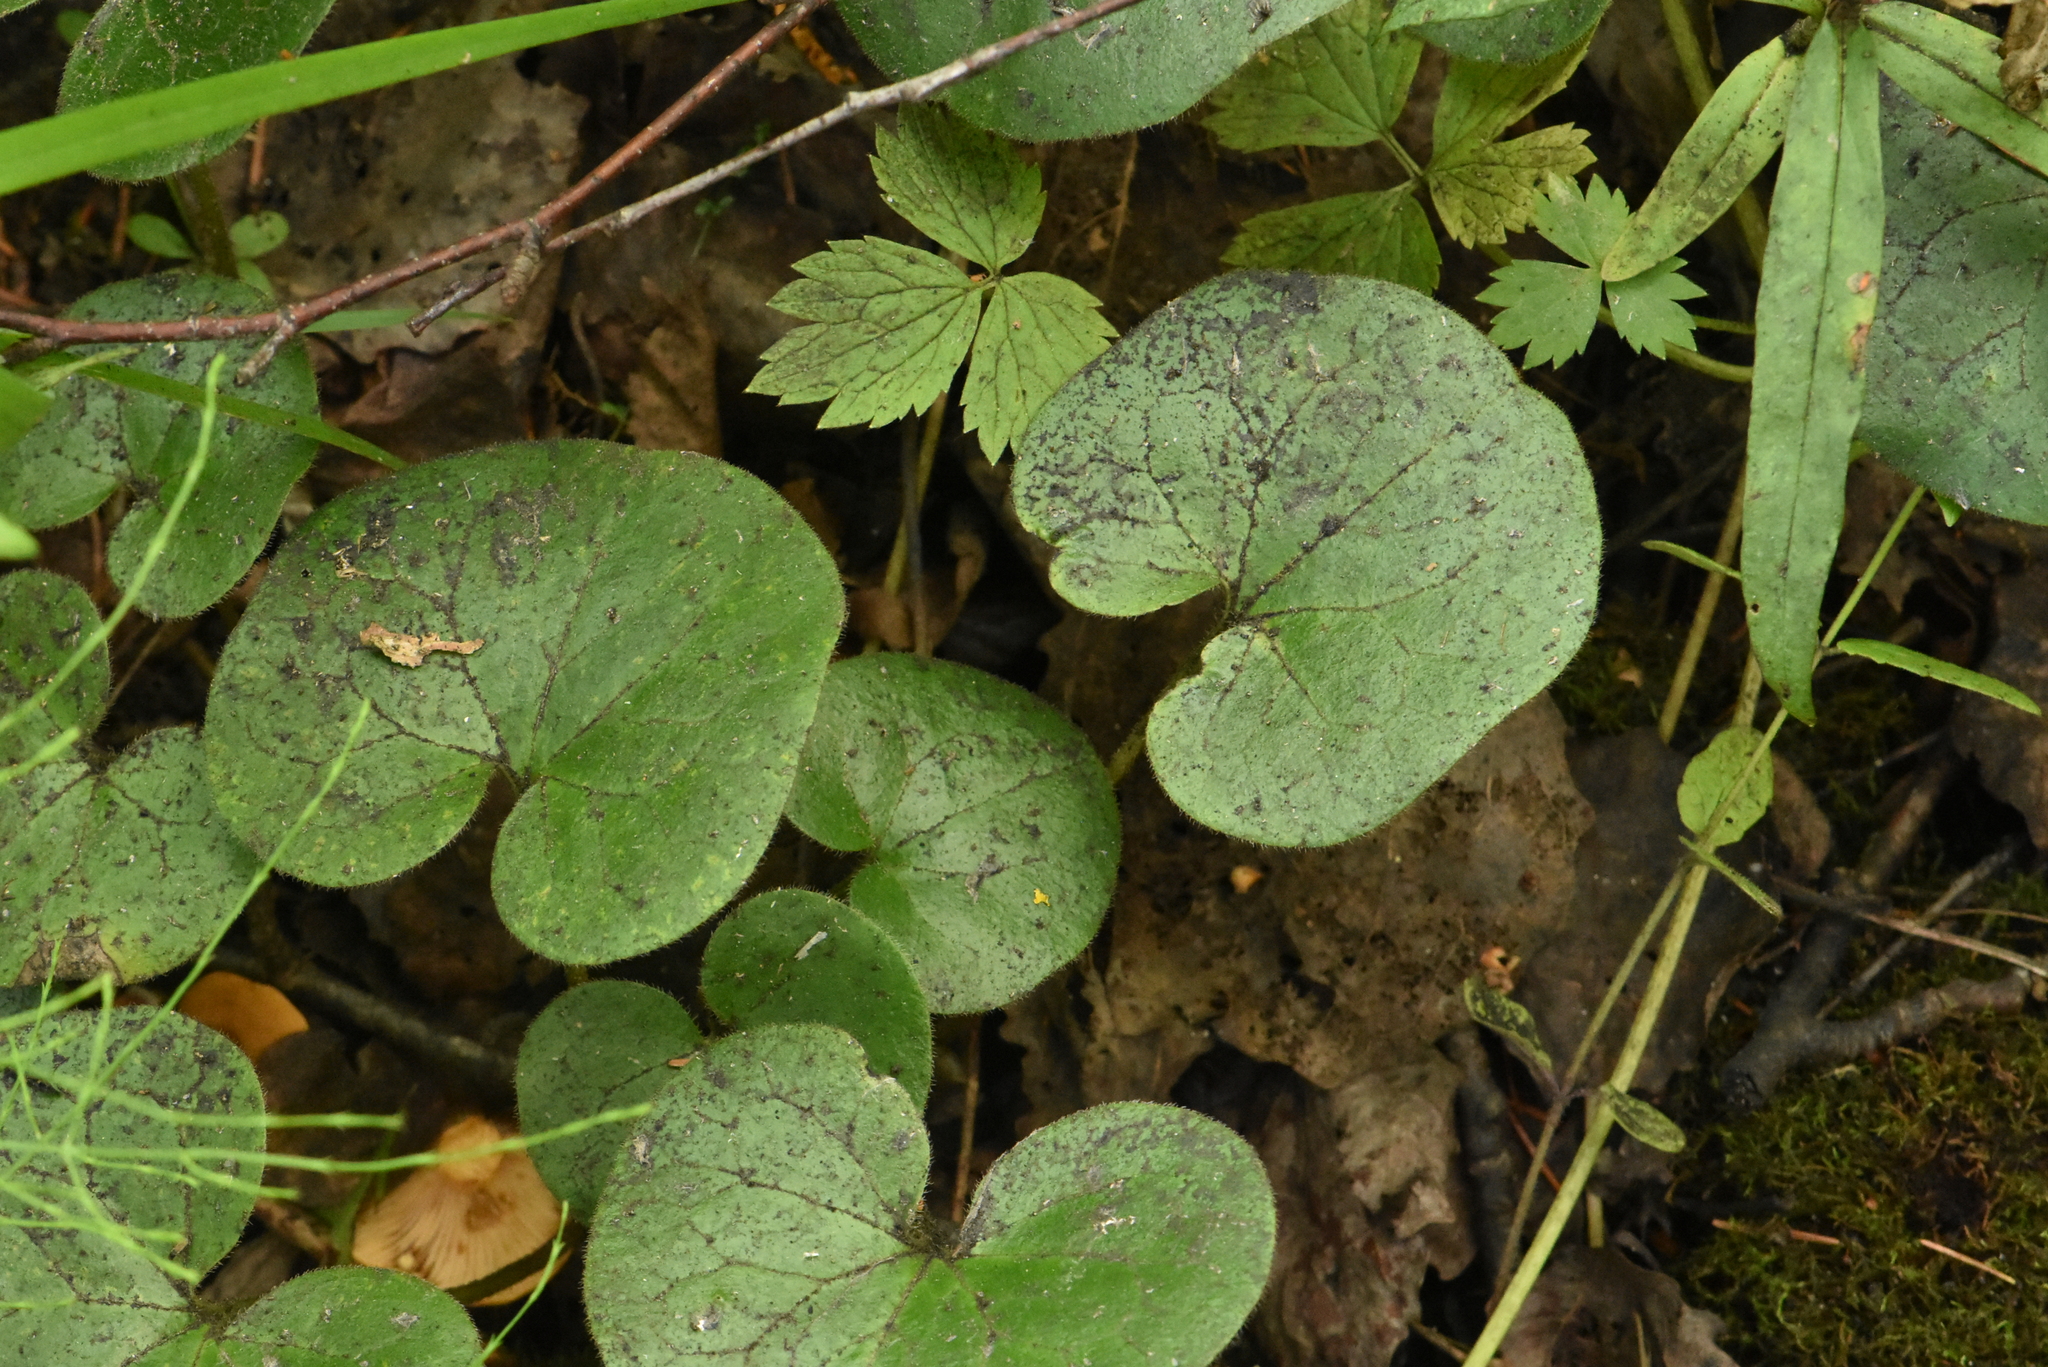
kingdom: Plantae
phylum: Tracheophyta
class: Magnoliopsida
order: Piperales
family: Aristolochiaceae
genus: Asarum
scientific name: Asarum europaeum
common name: Asarabacca
